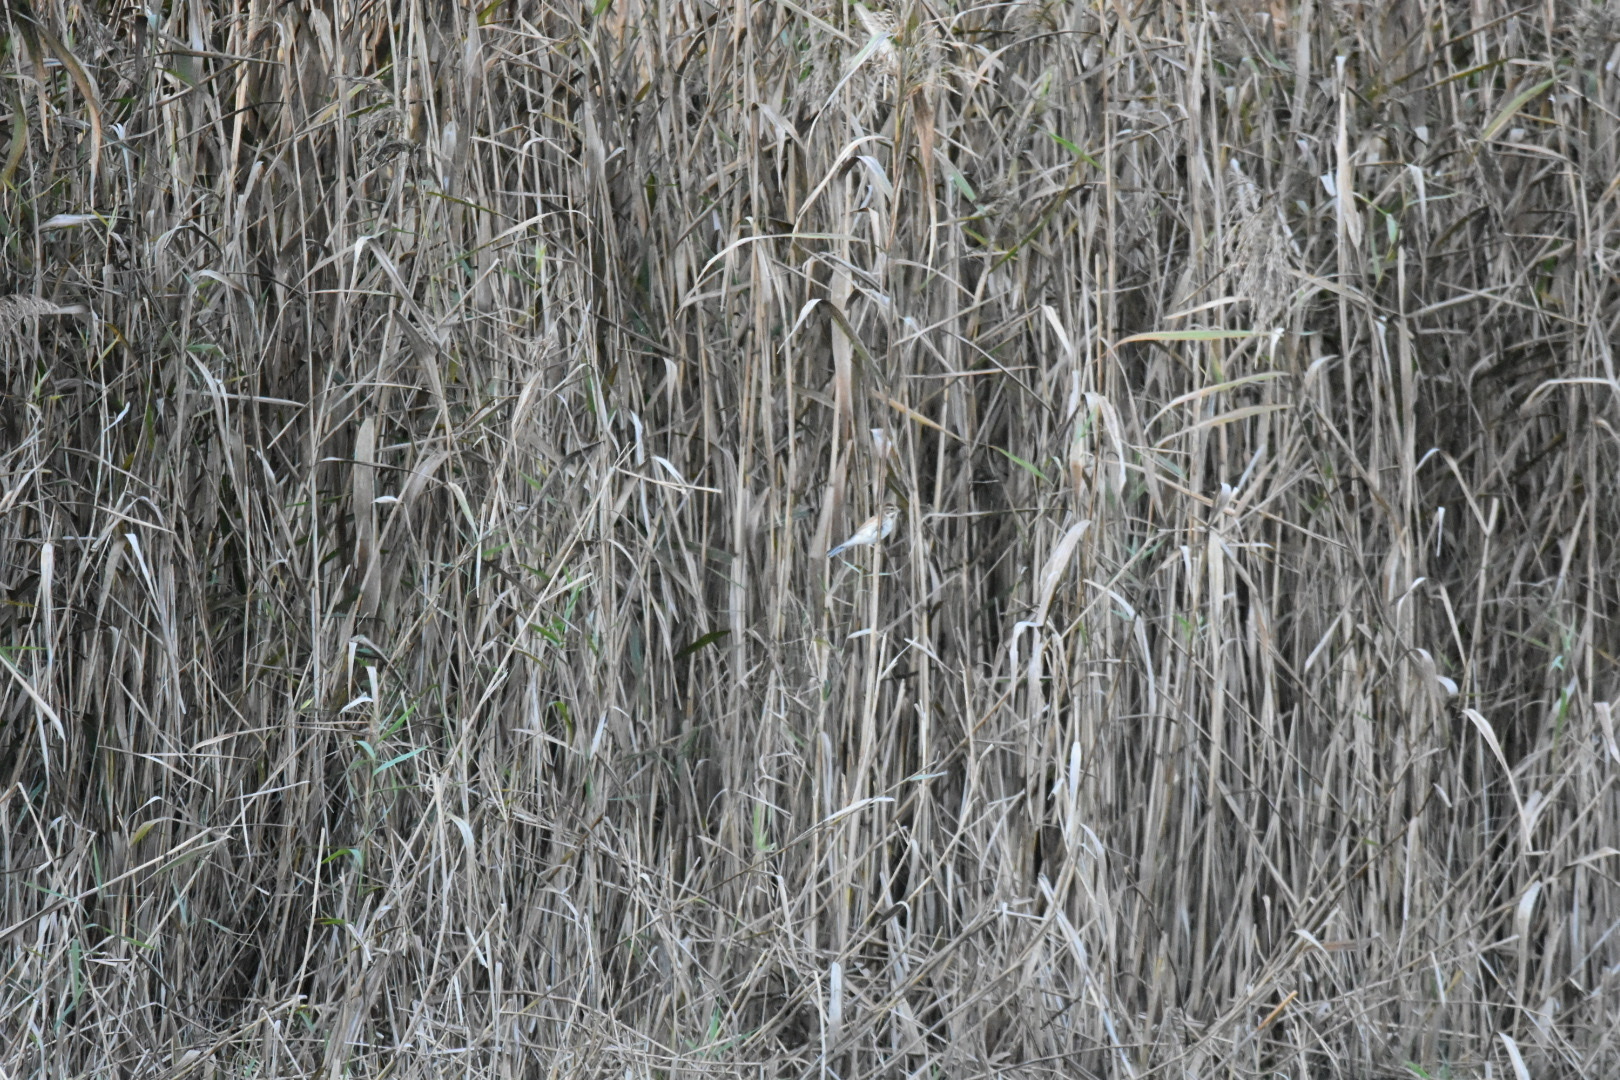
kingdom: Animalia
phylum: Chordata
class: Aves
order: Passeriformes
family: Emberizidae
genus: Emberiza
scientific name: Emberiza schoeniclus
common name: Reed bunting
